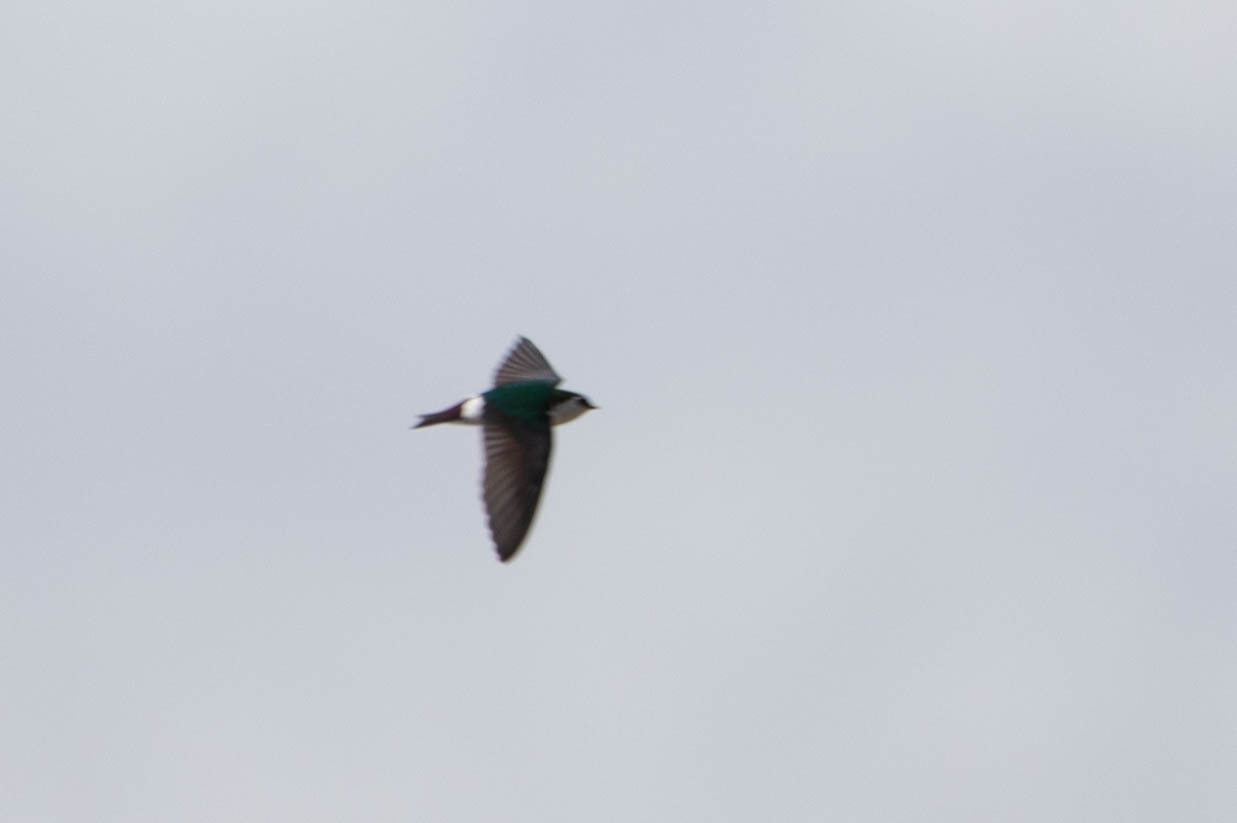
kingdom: Animalia
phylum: Chordata
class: Aves
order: Passeriformes
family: Hirundinidae
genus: Tachycineta
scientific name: Tachycineta thalassina
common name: Violet-green swallow
